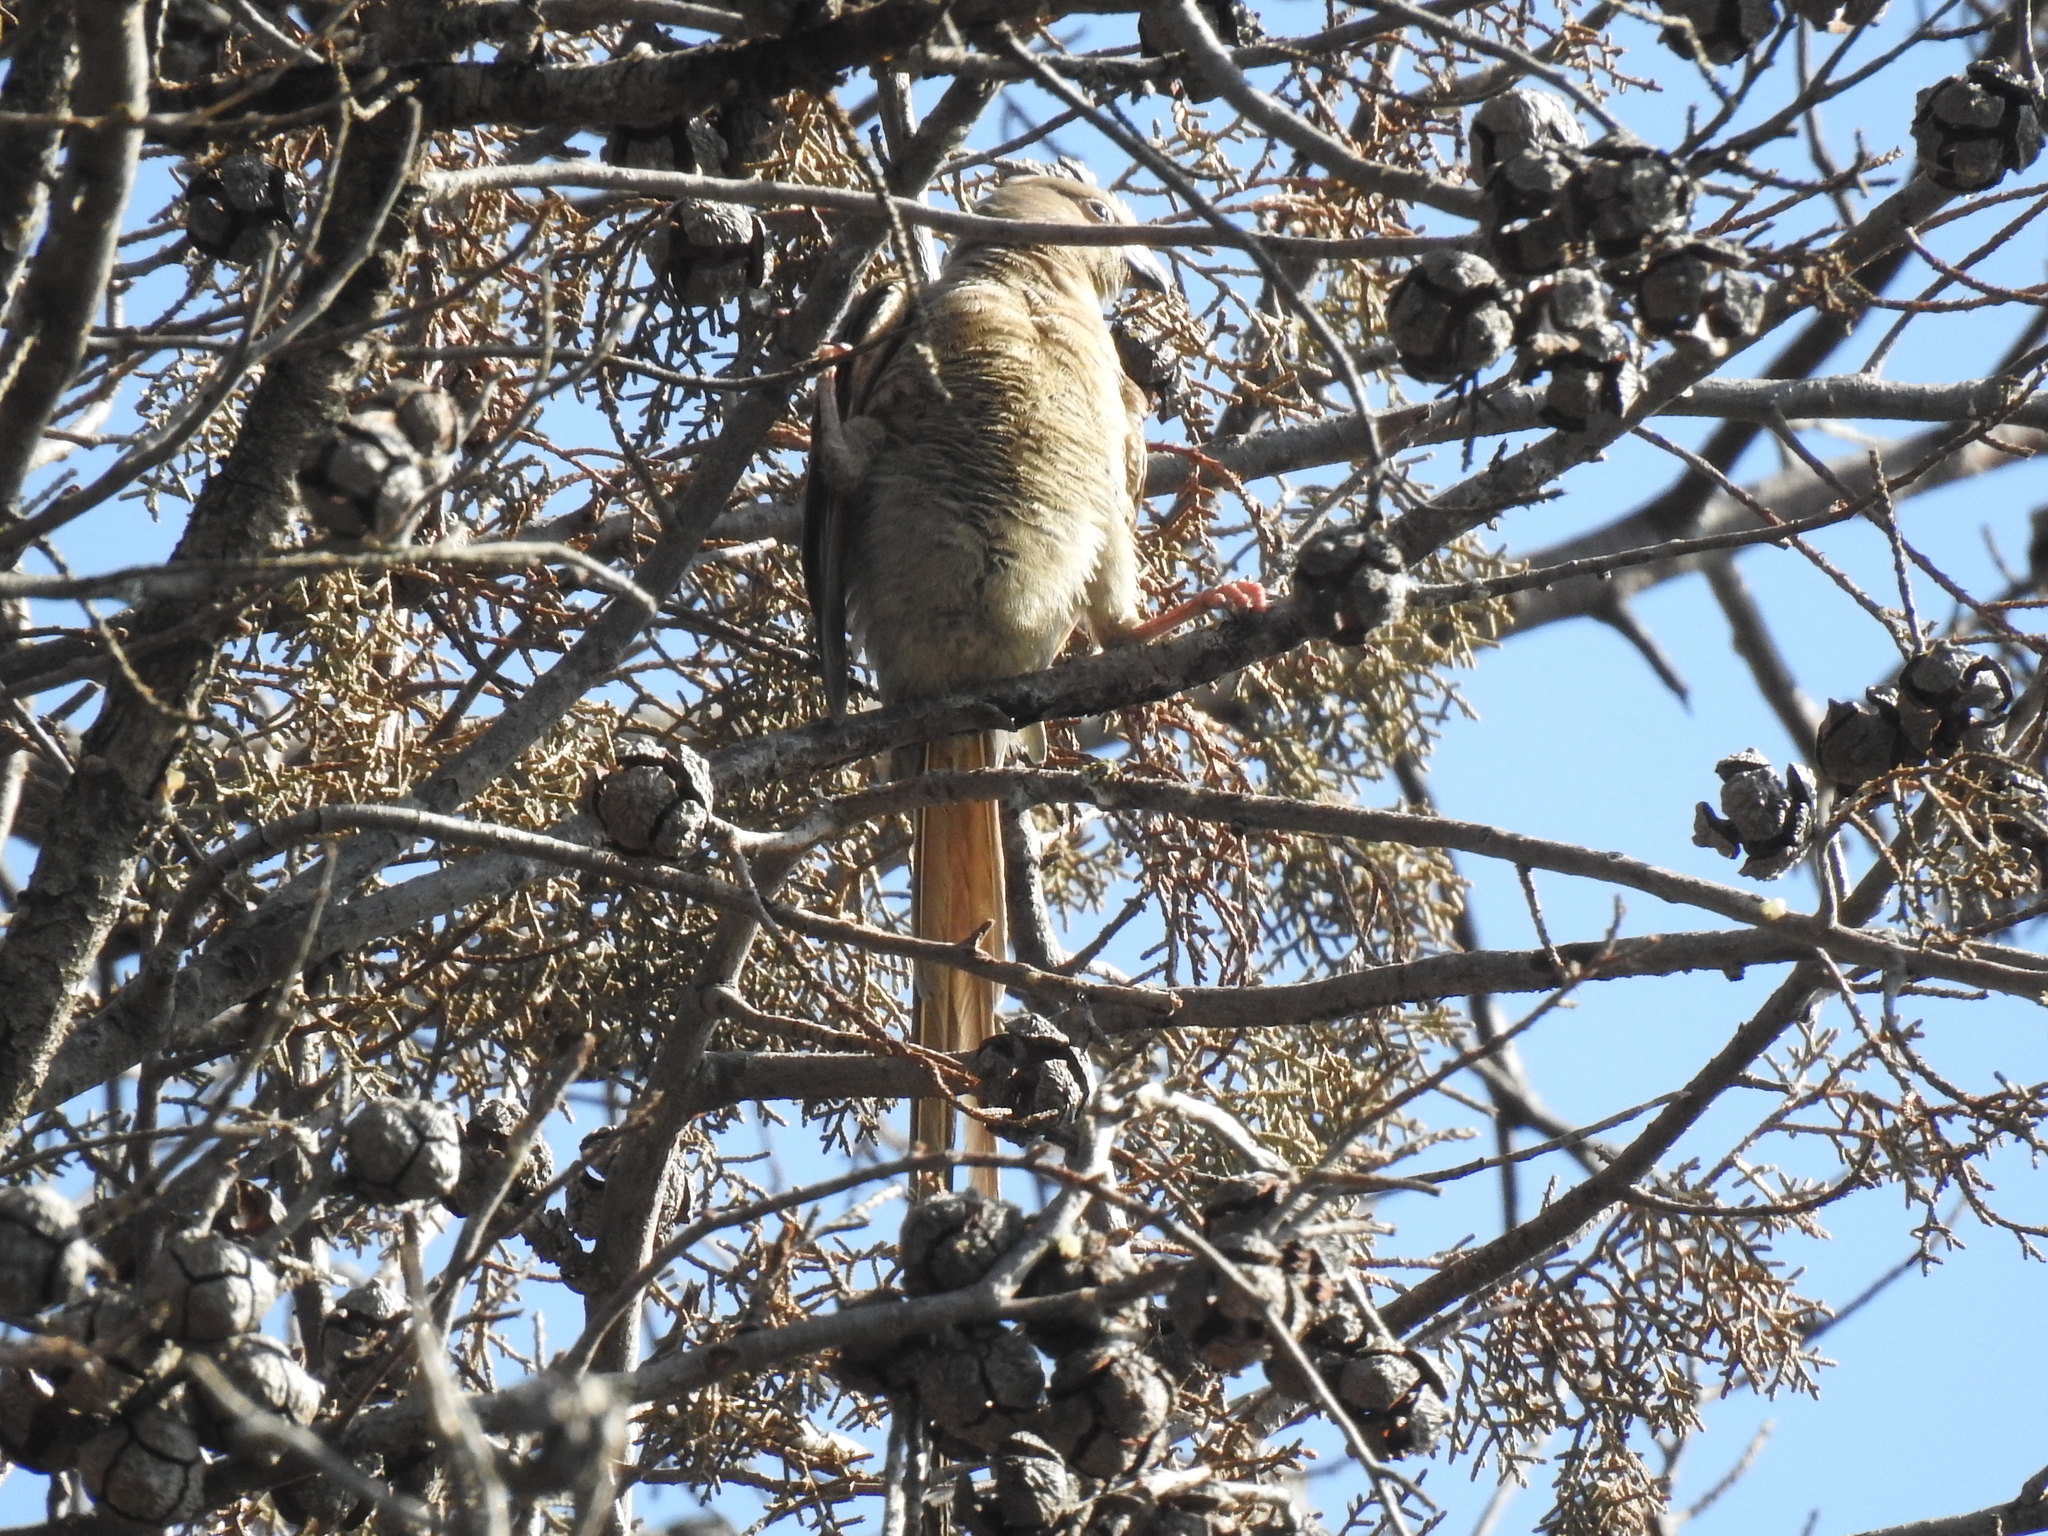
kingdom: Animalia
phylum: Chordata
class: Aves
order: Coliiformes
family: Coliidae
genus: Colius
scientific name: Colius striatus
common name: Speckled mousebird
